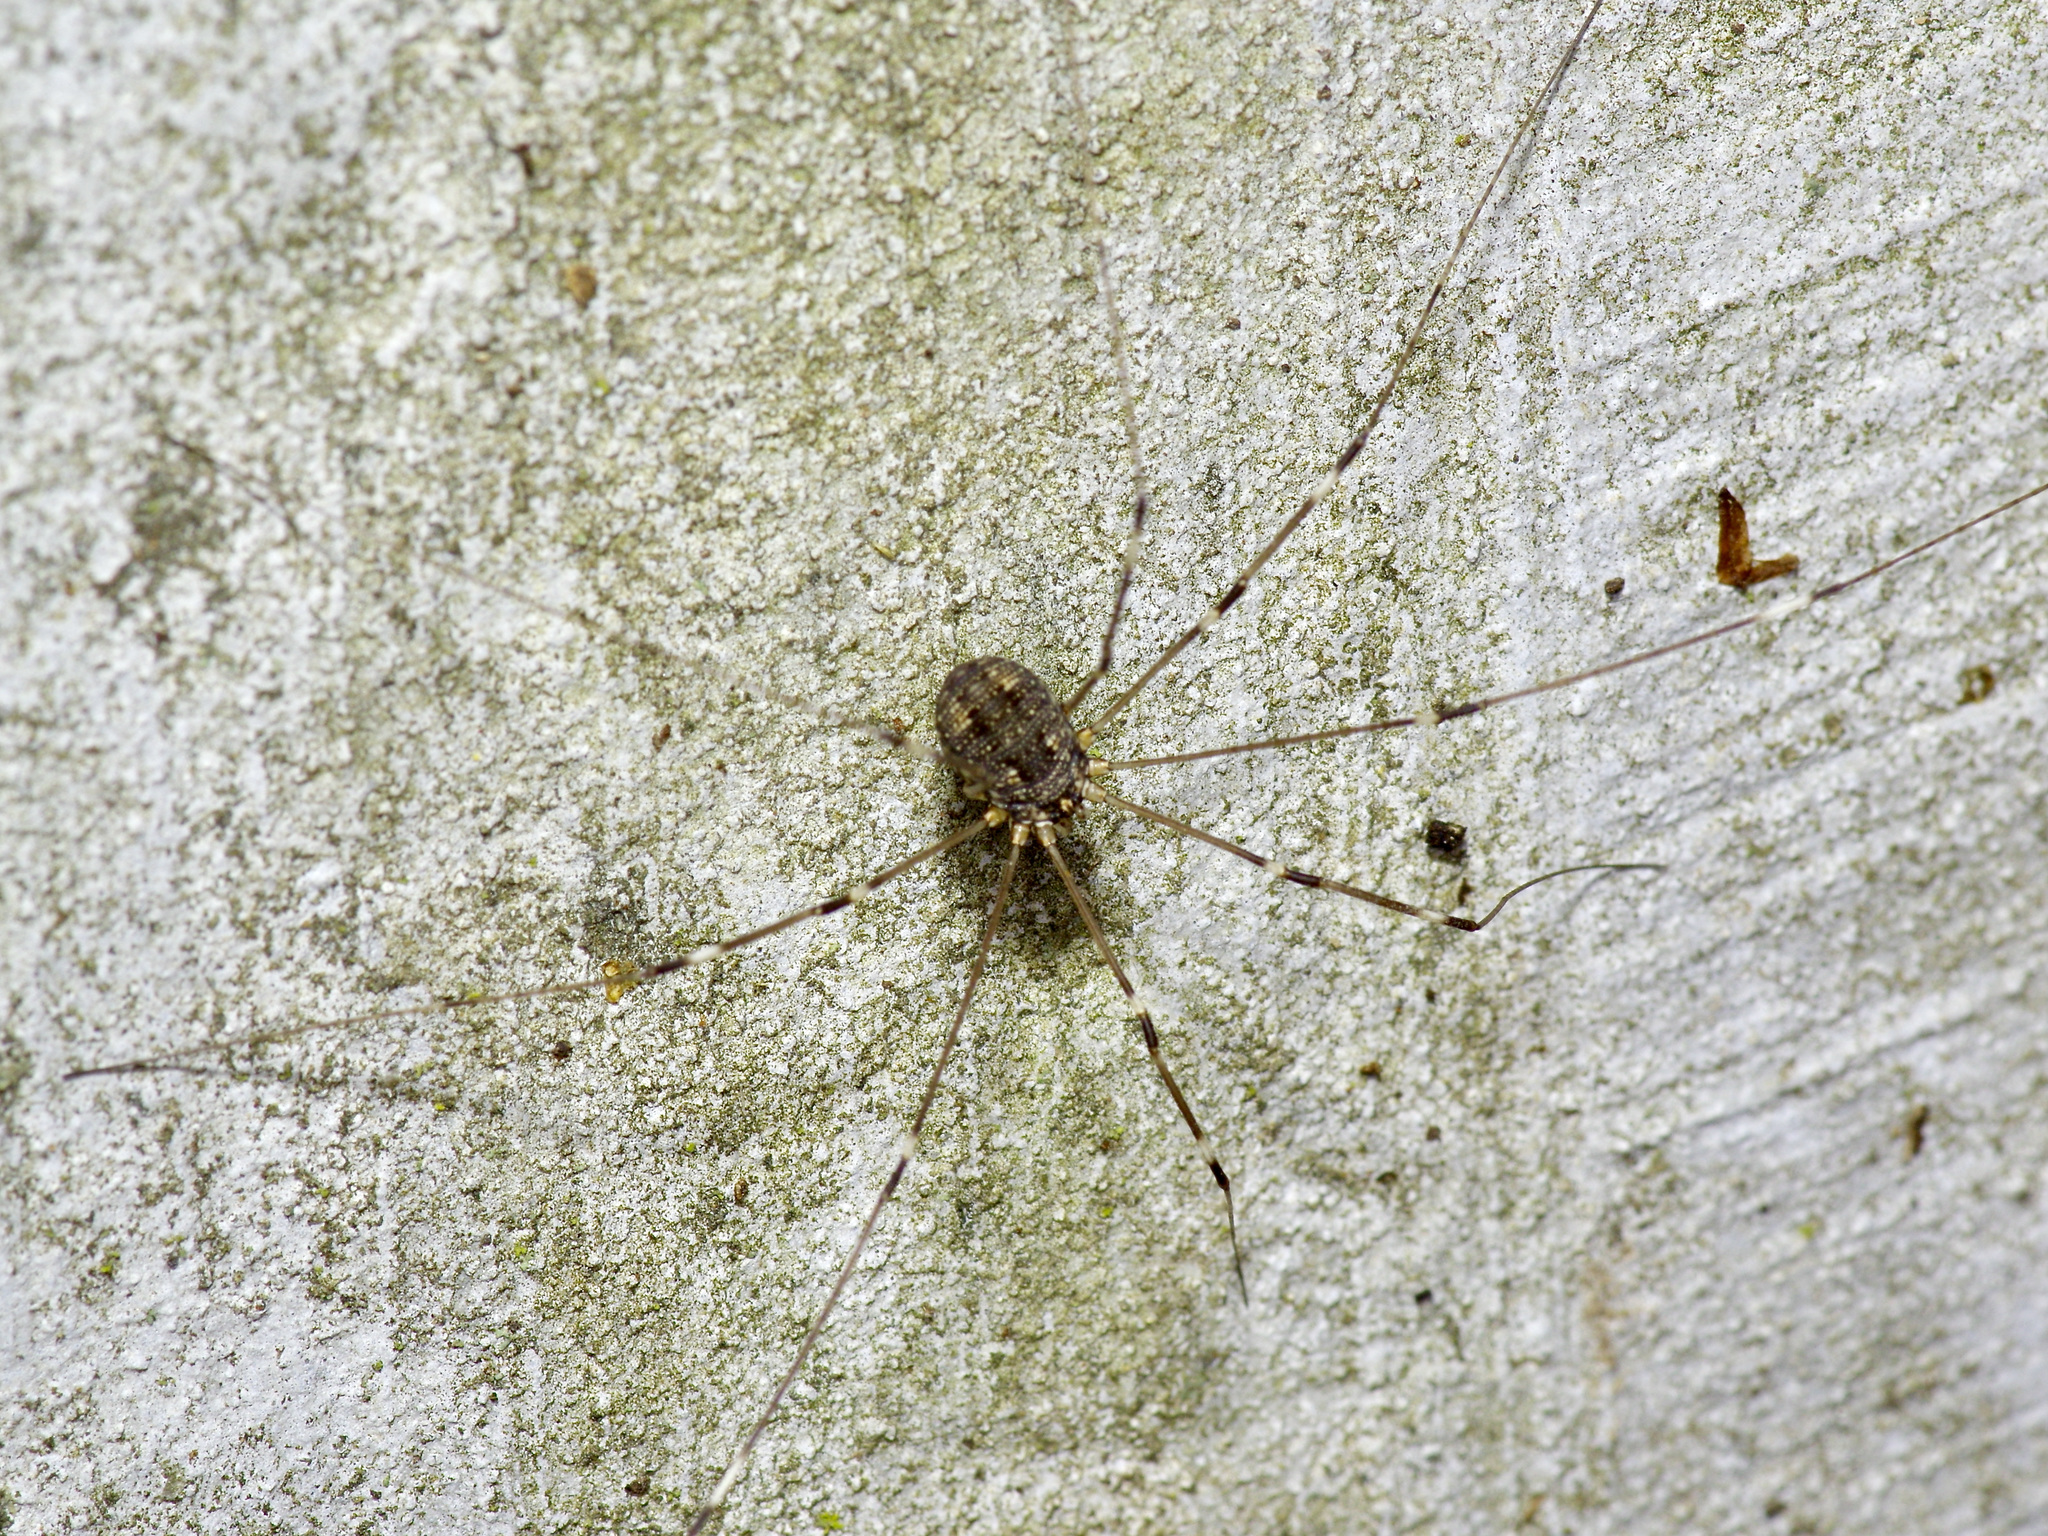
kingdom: Animalia
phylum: Arthropoda
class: Arachnida
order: Opiliones
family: Sclerosomatidae
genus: Leiobunum
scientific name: Leiobunum townsendi
